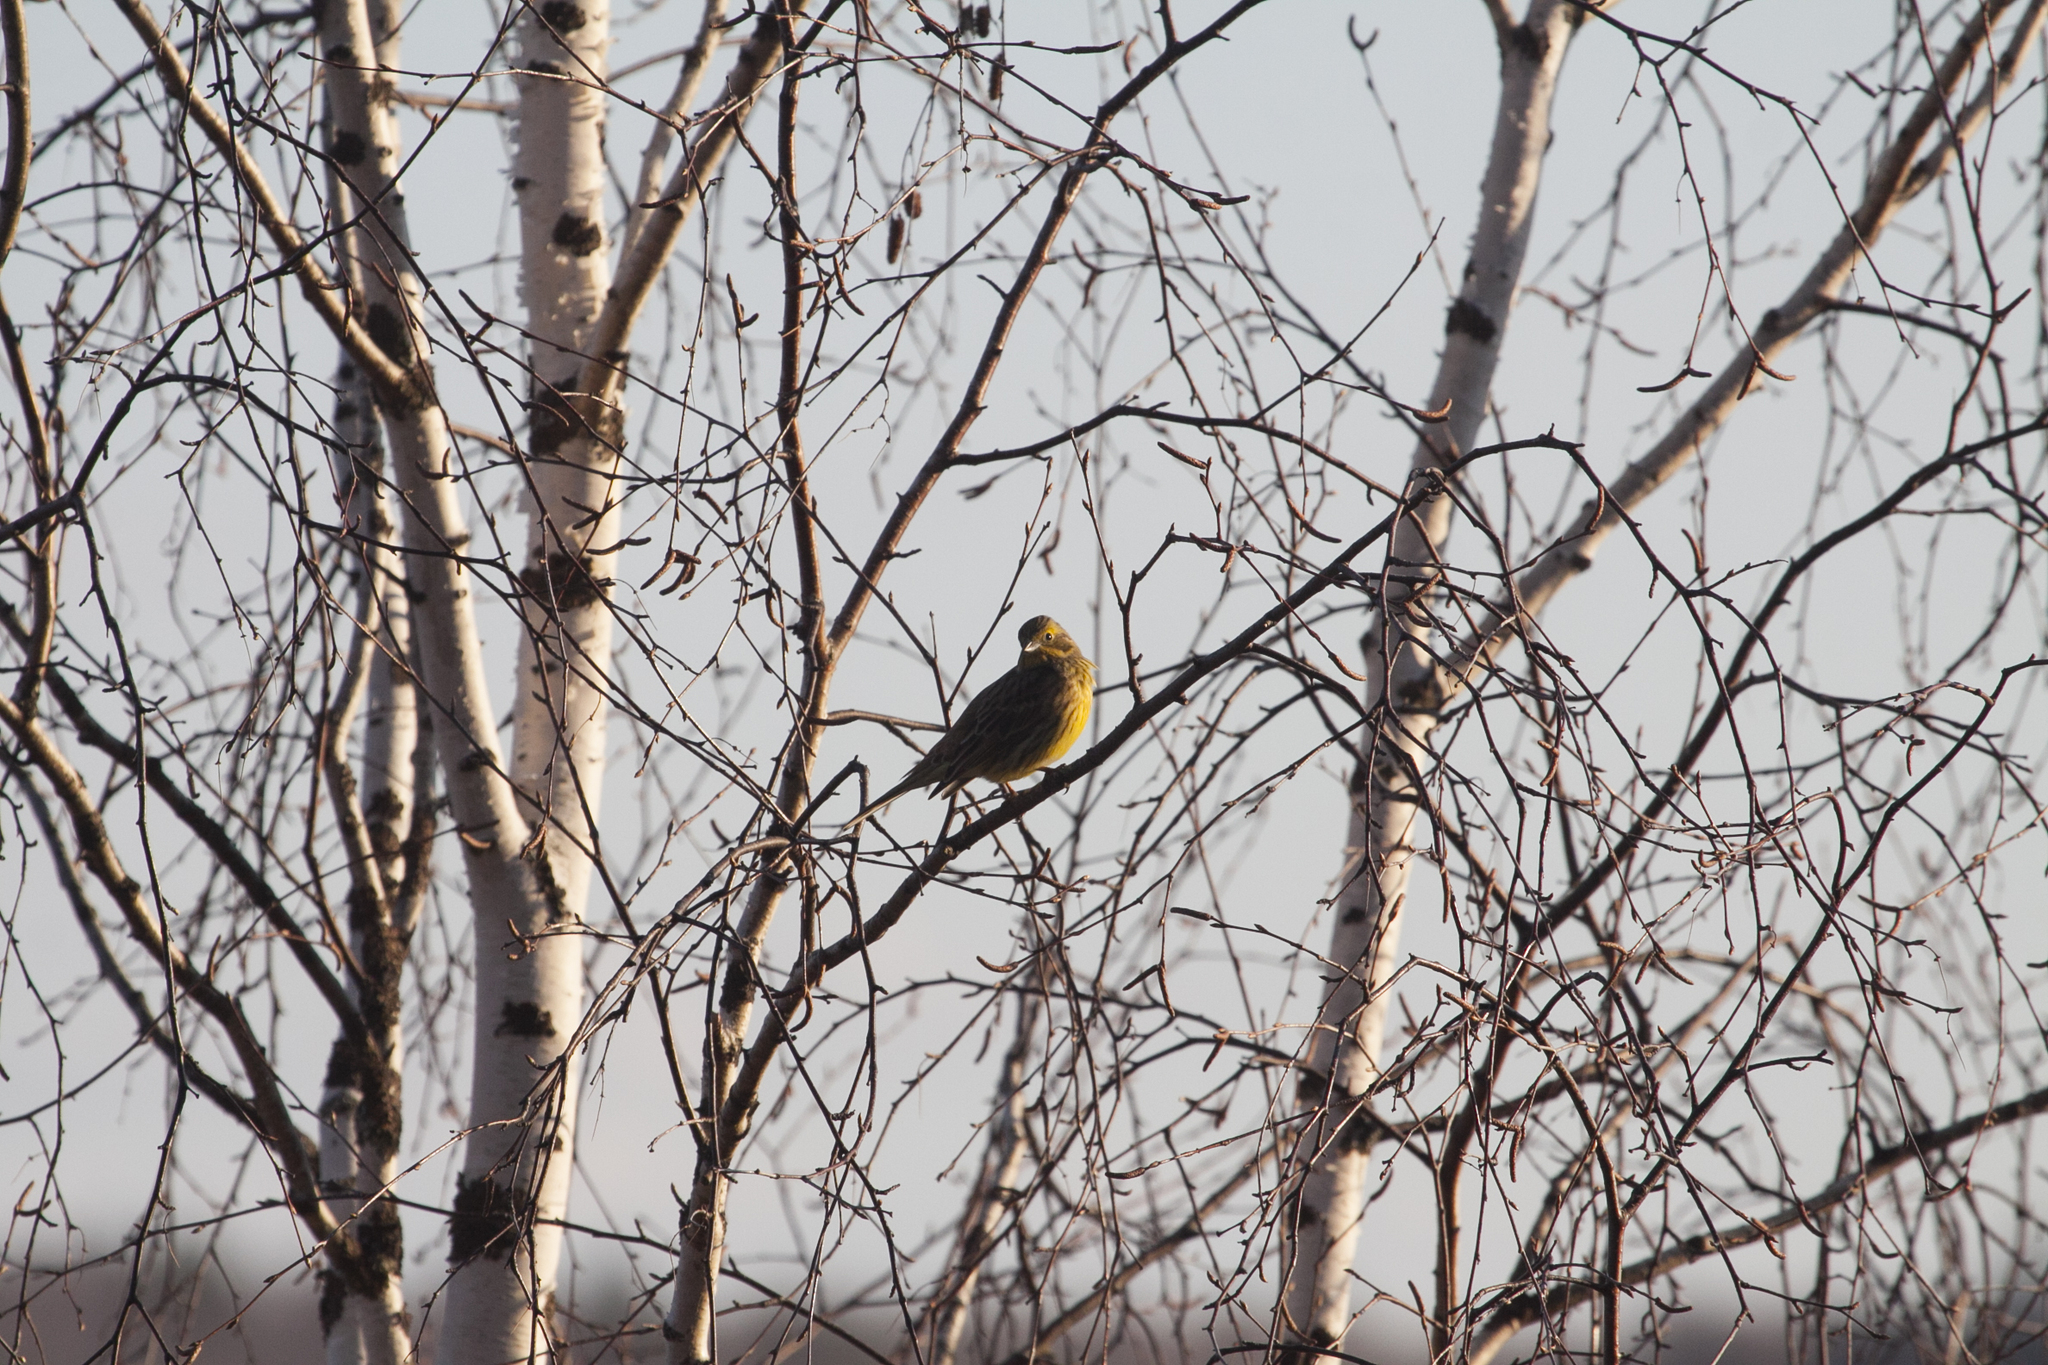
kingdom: Animalia
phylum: Chordata
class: Aves
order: Passeriformes
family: Emberizidae
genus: Emberiza
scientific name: Emberiza citrinella
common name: Yellowhammer
